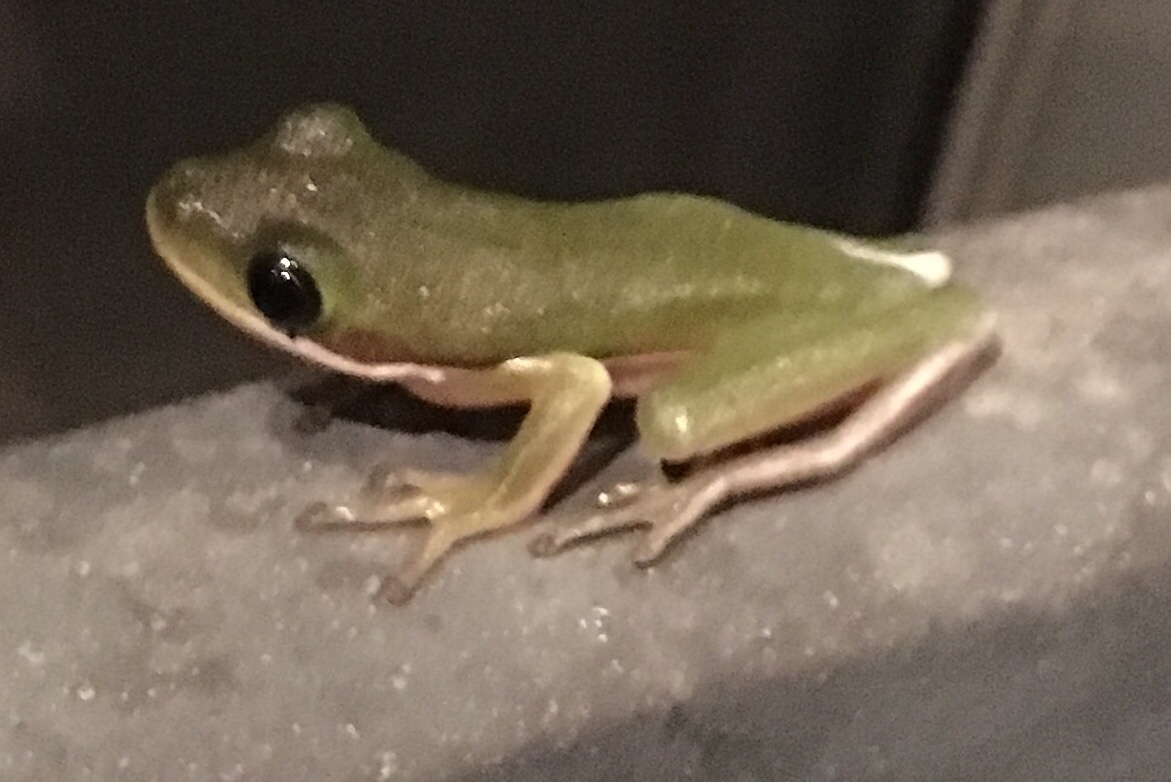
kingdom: Animalia
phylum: Chordata
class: Amphibia
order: Anura
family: Hylidae
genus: Dryophytes
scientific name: Dryophytes cinereus
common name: Green treefrog
